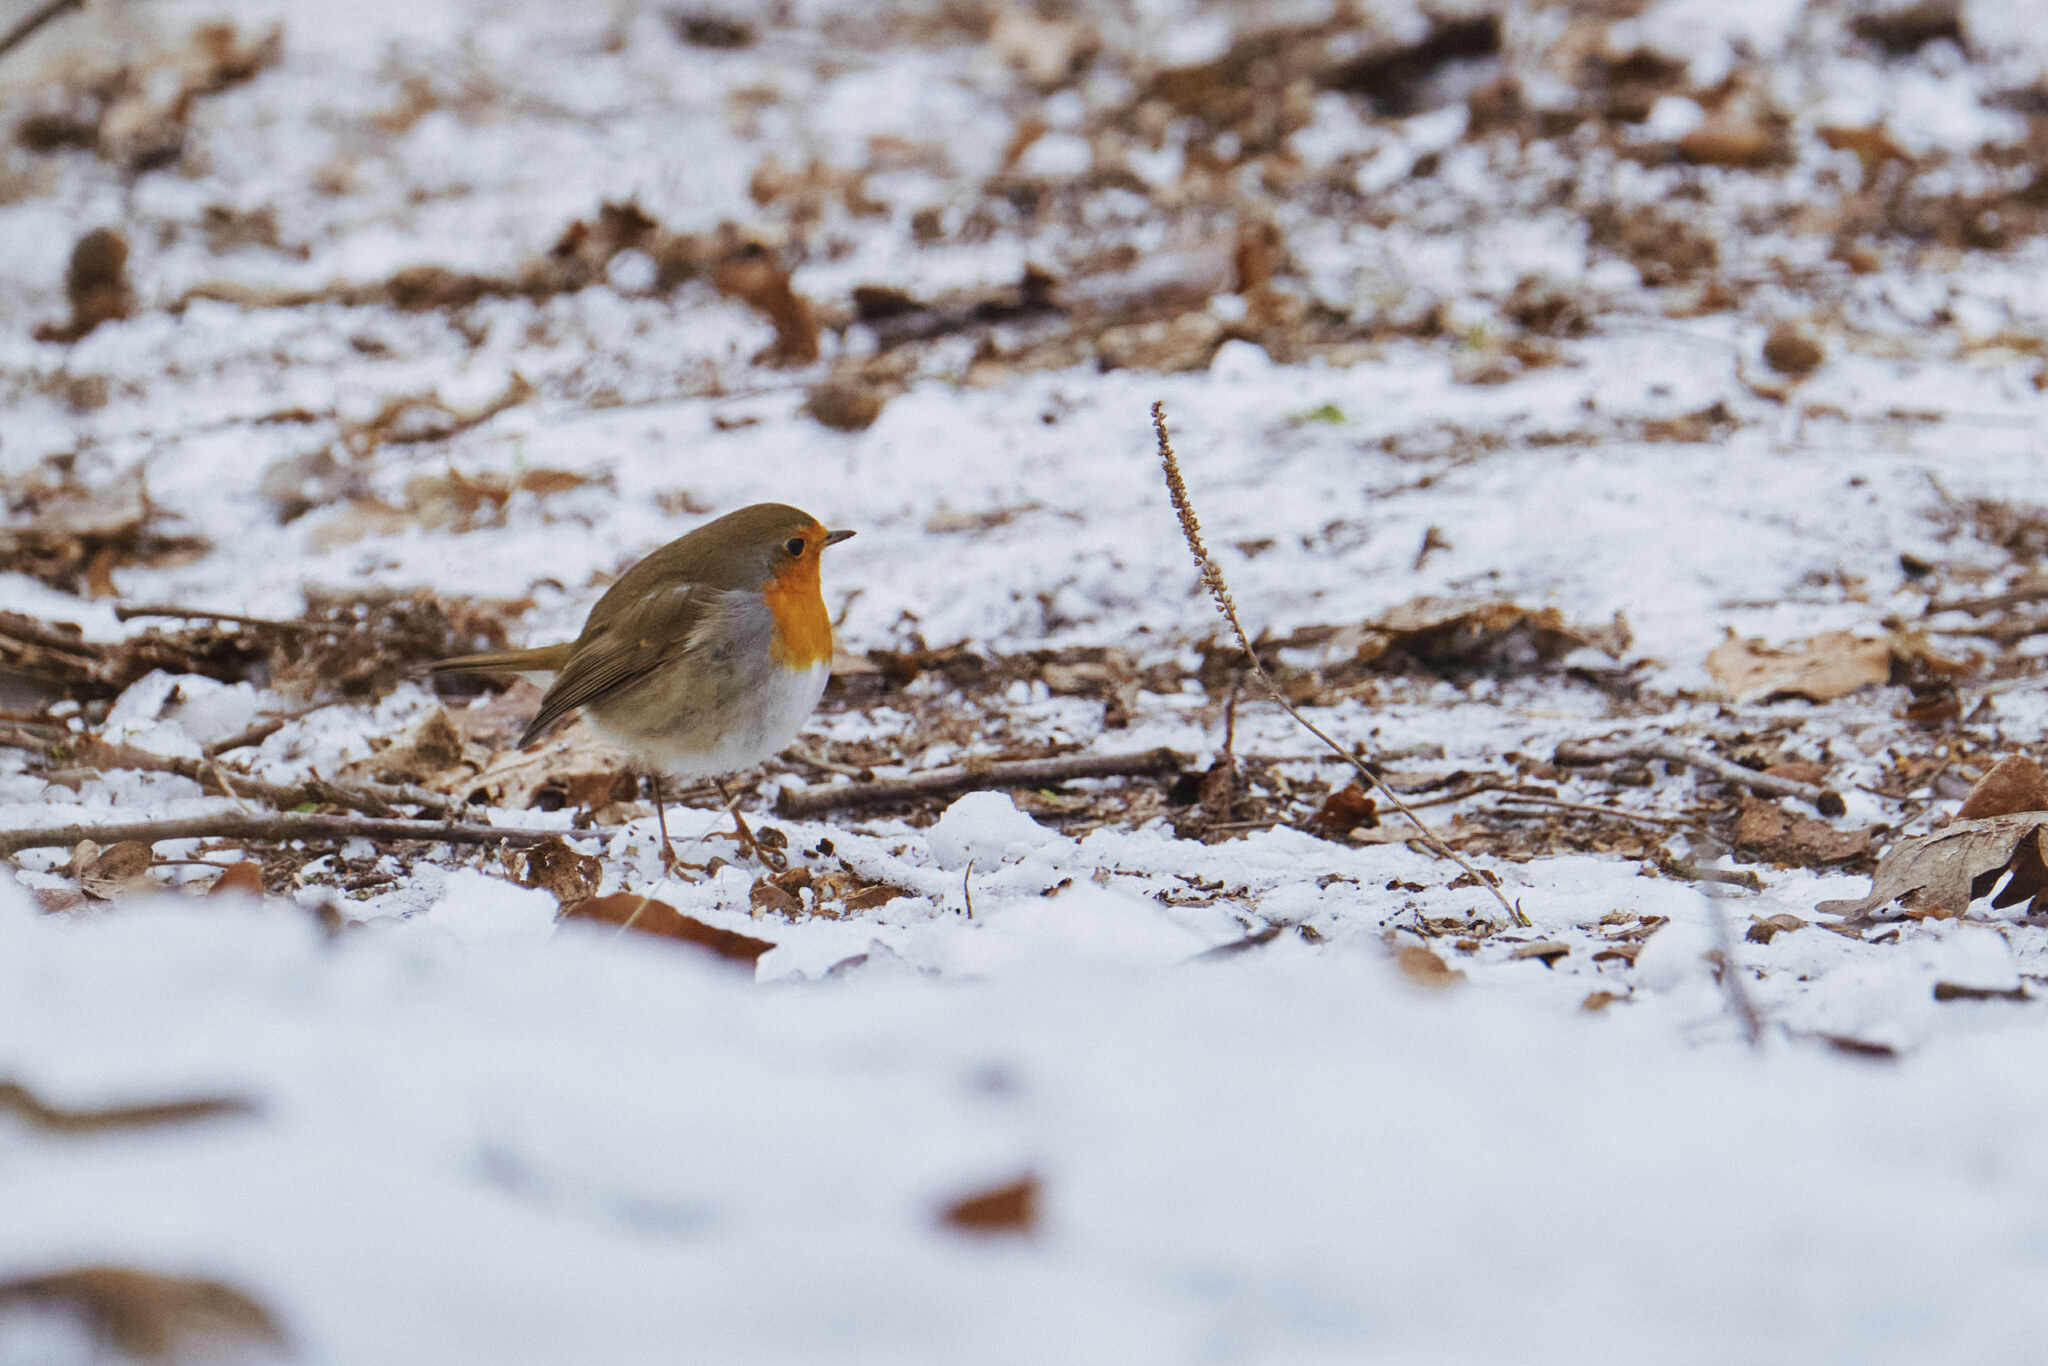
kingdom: Animalia
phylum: Chordata
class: Aves
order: Passeriformes
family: Muscicapidae
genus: Erithacus
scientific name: Erithacus rubecula
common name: European robin
